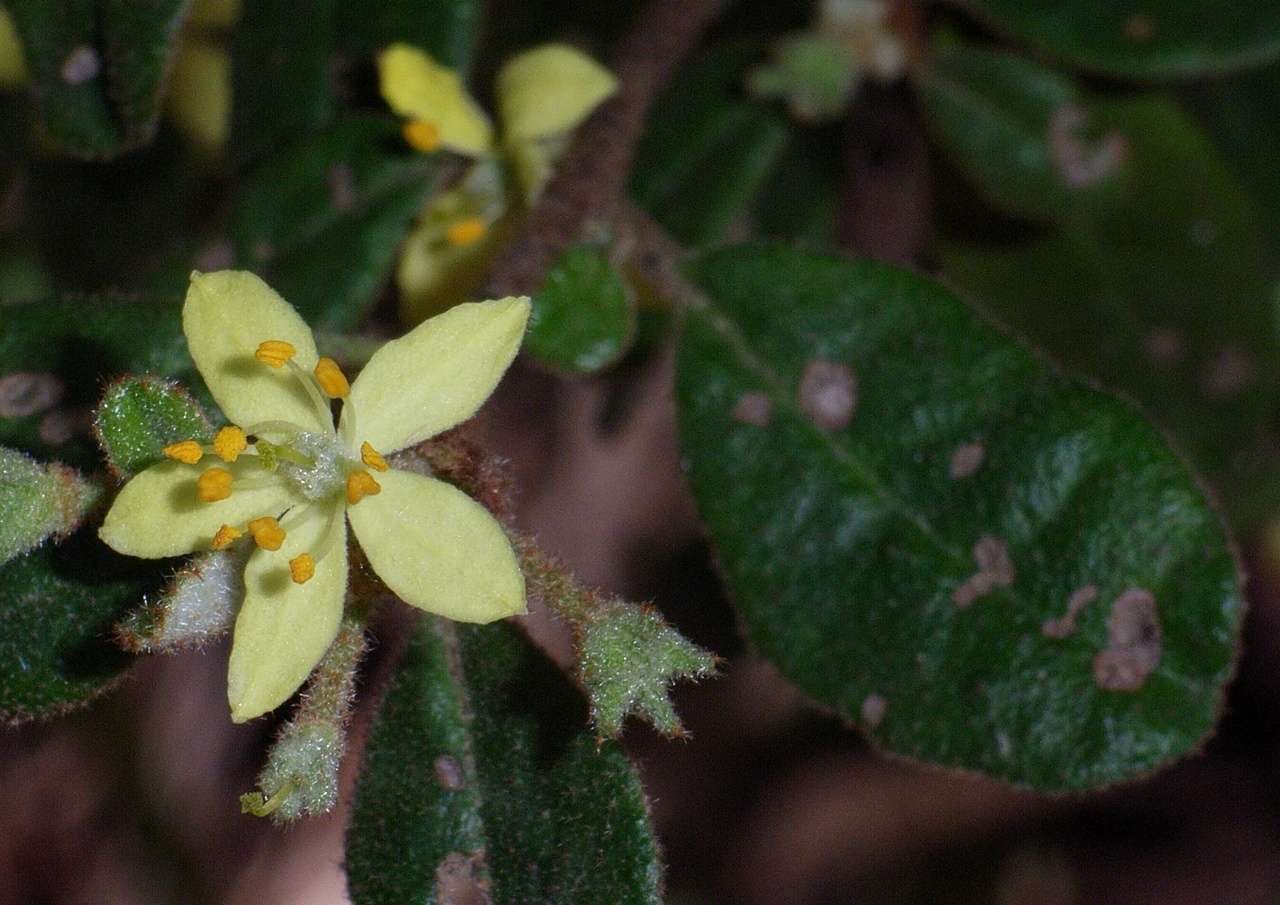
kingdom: Plantae
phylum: Tracheophyta
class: Magnoliopsida
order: Sapindales
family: Rutaceae
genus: Asterolasia
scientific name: Asterolasia asteriscophora
